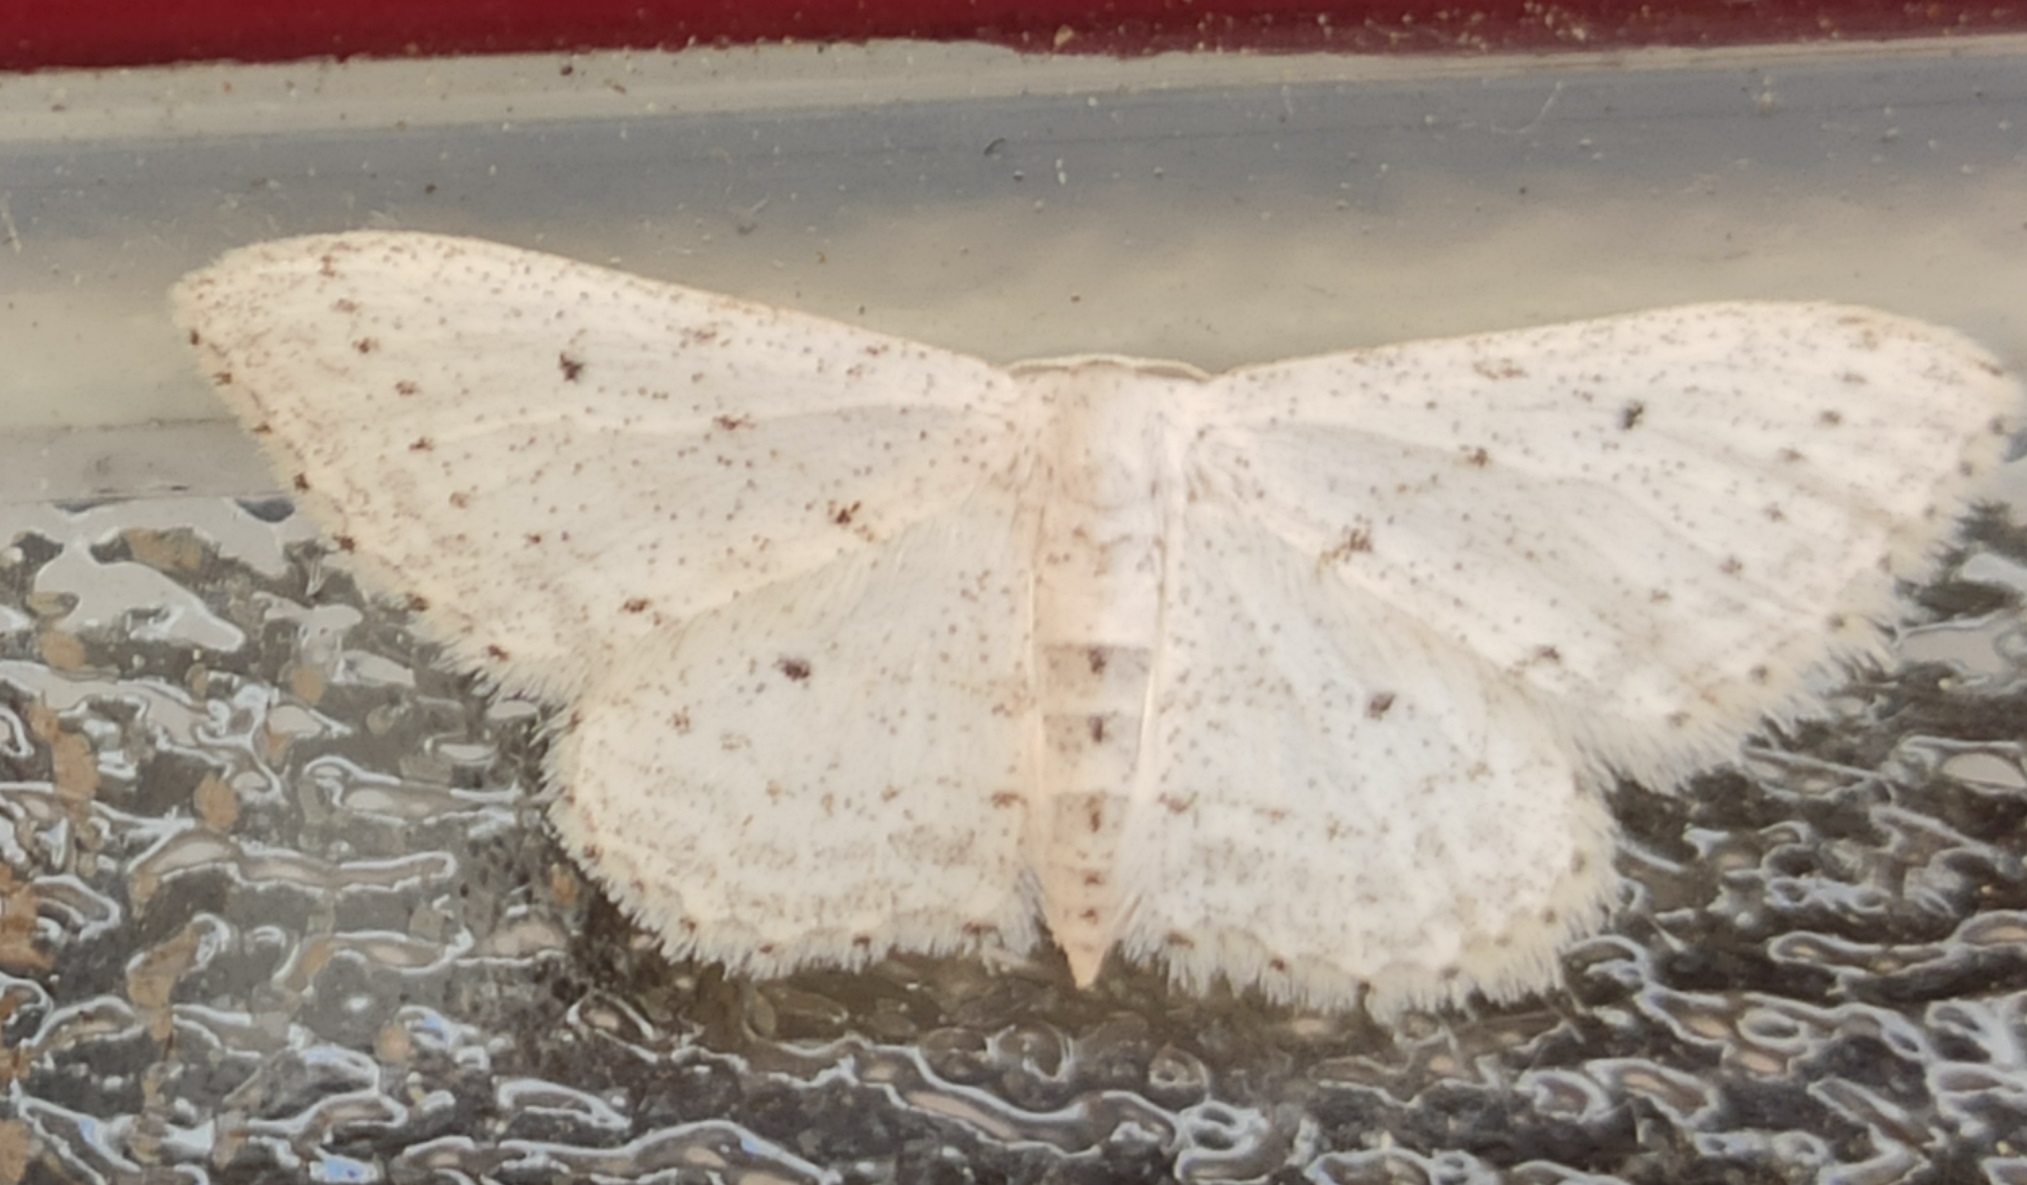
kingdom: Animalia
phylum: Arthropoda
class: Insecta
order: Lepidoptera
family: Geometridae
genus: Idaea
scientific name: Idaea seriata
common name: Small dusty wave
